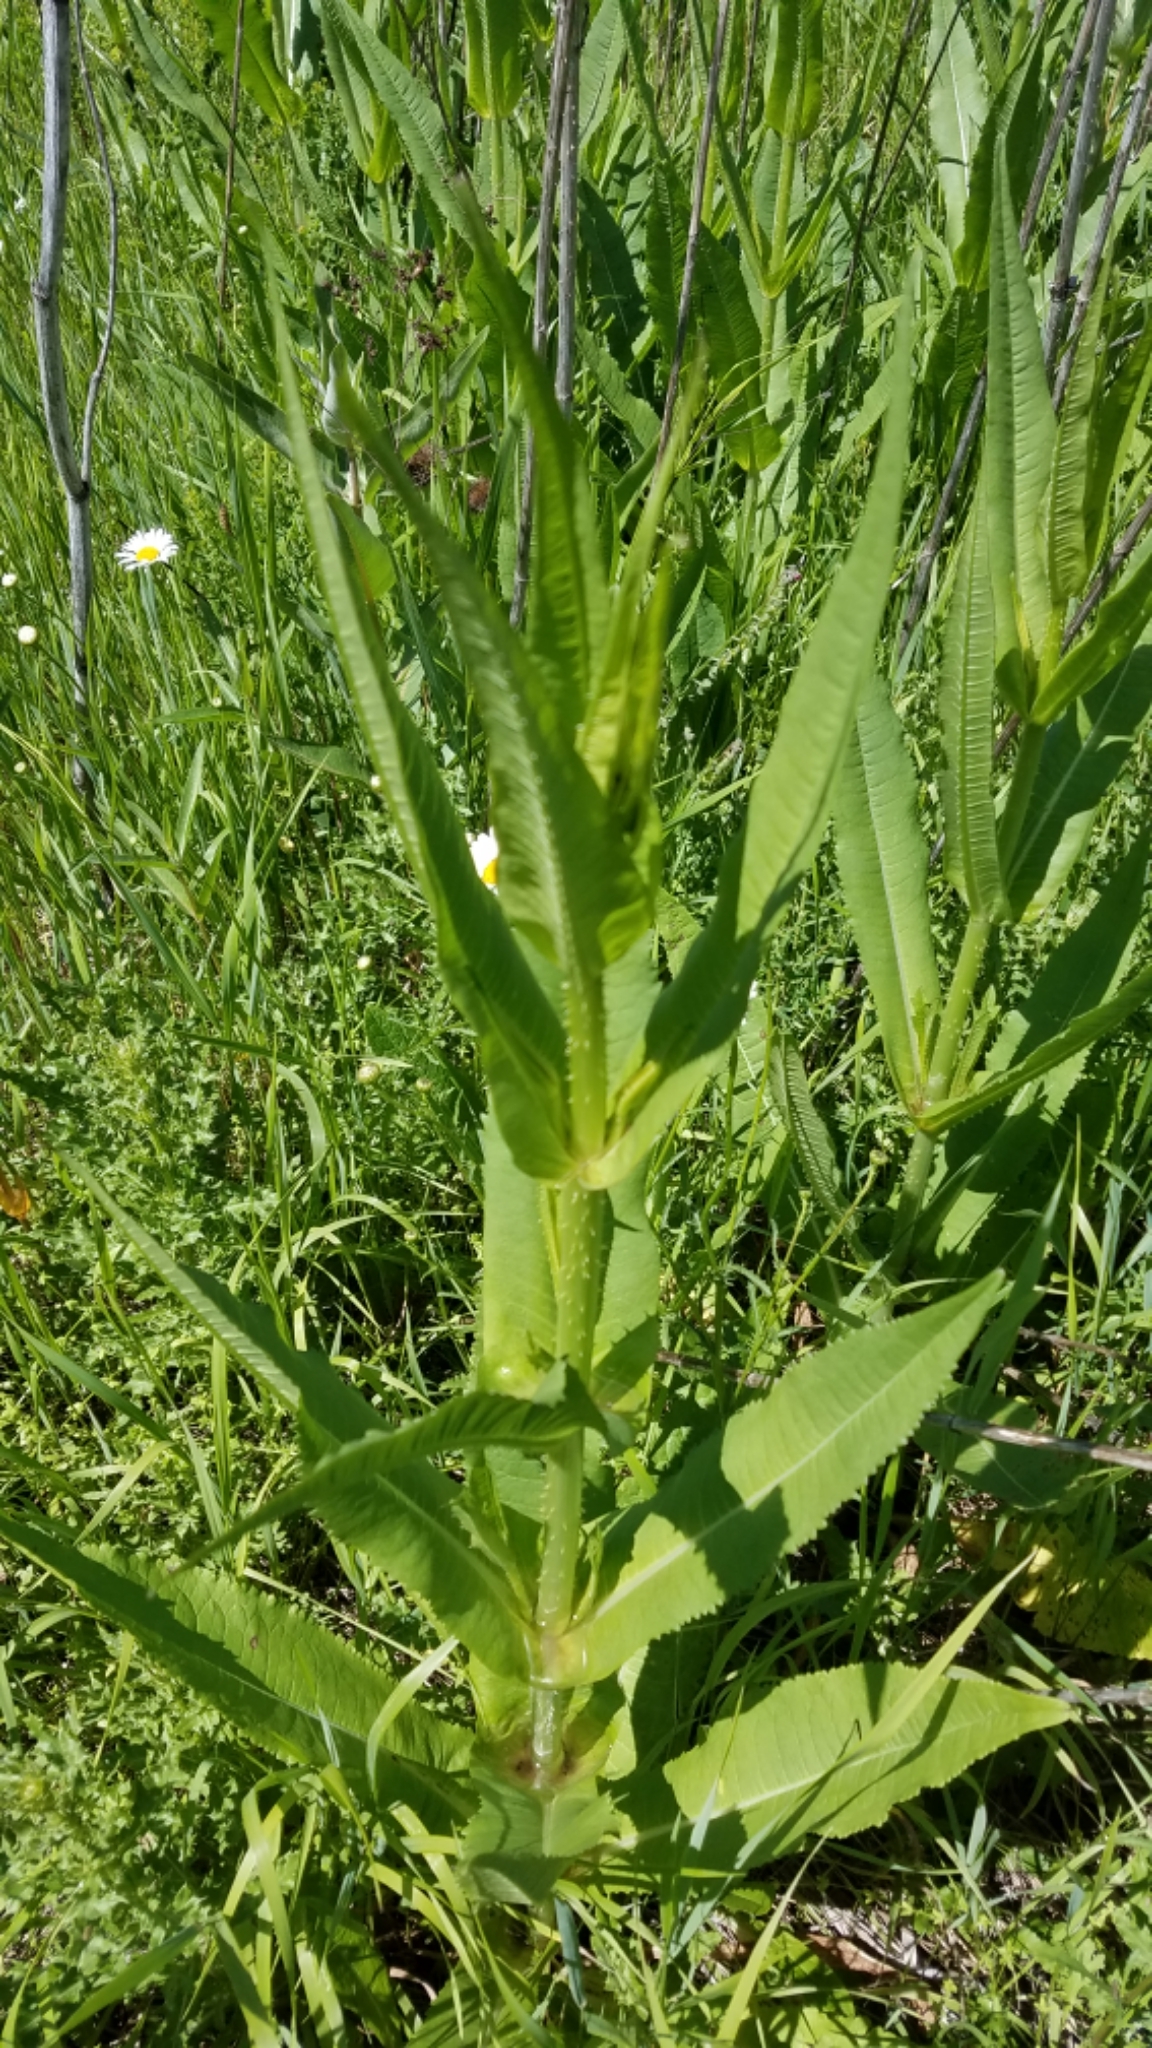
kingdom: Plantae
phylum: Tracheophyta
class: Magnoliopsida
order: Dipsacales
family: Caprifoliaceae
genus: Dipsacus
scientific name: Dipsacus fullonum
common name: Teasel
